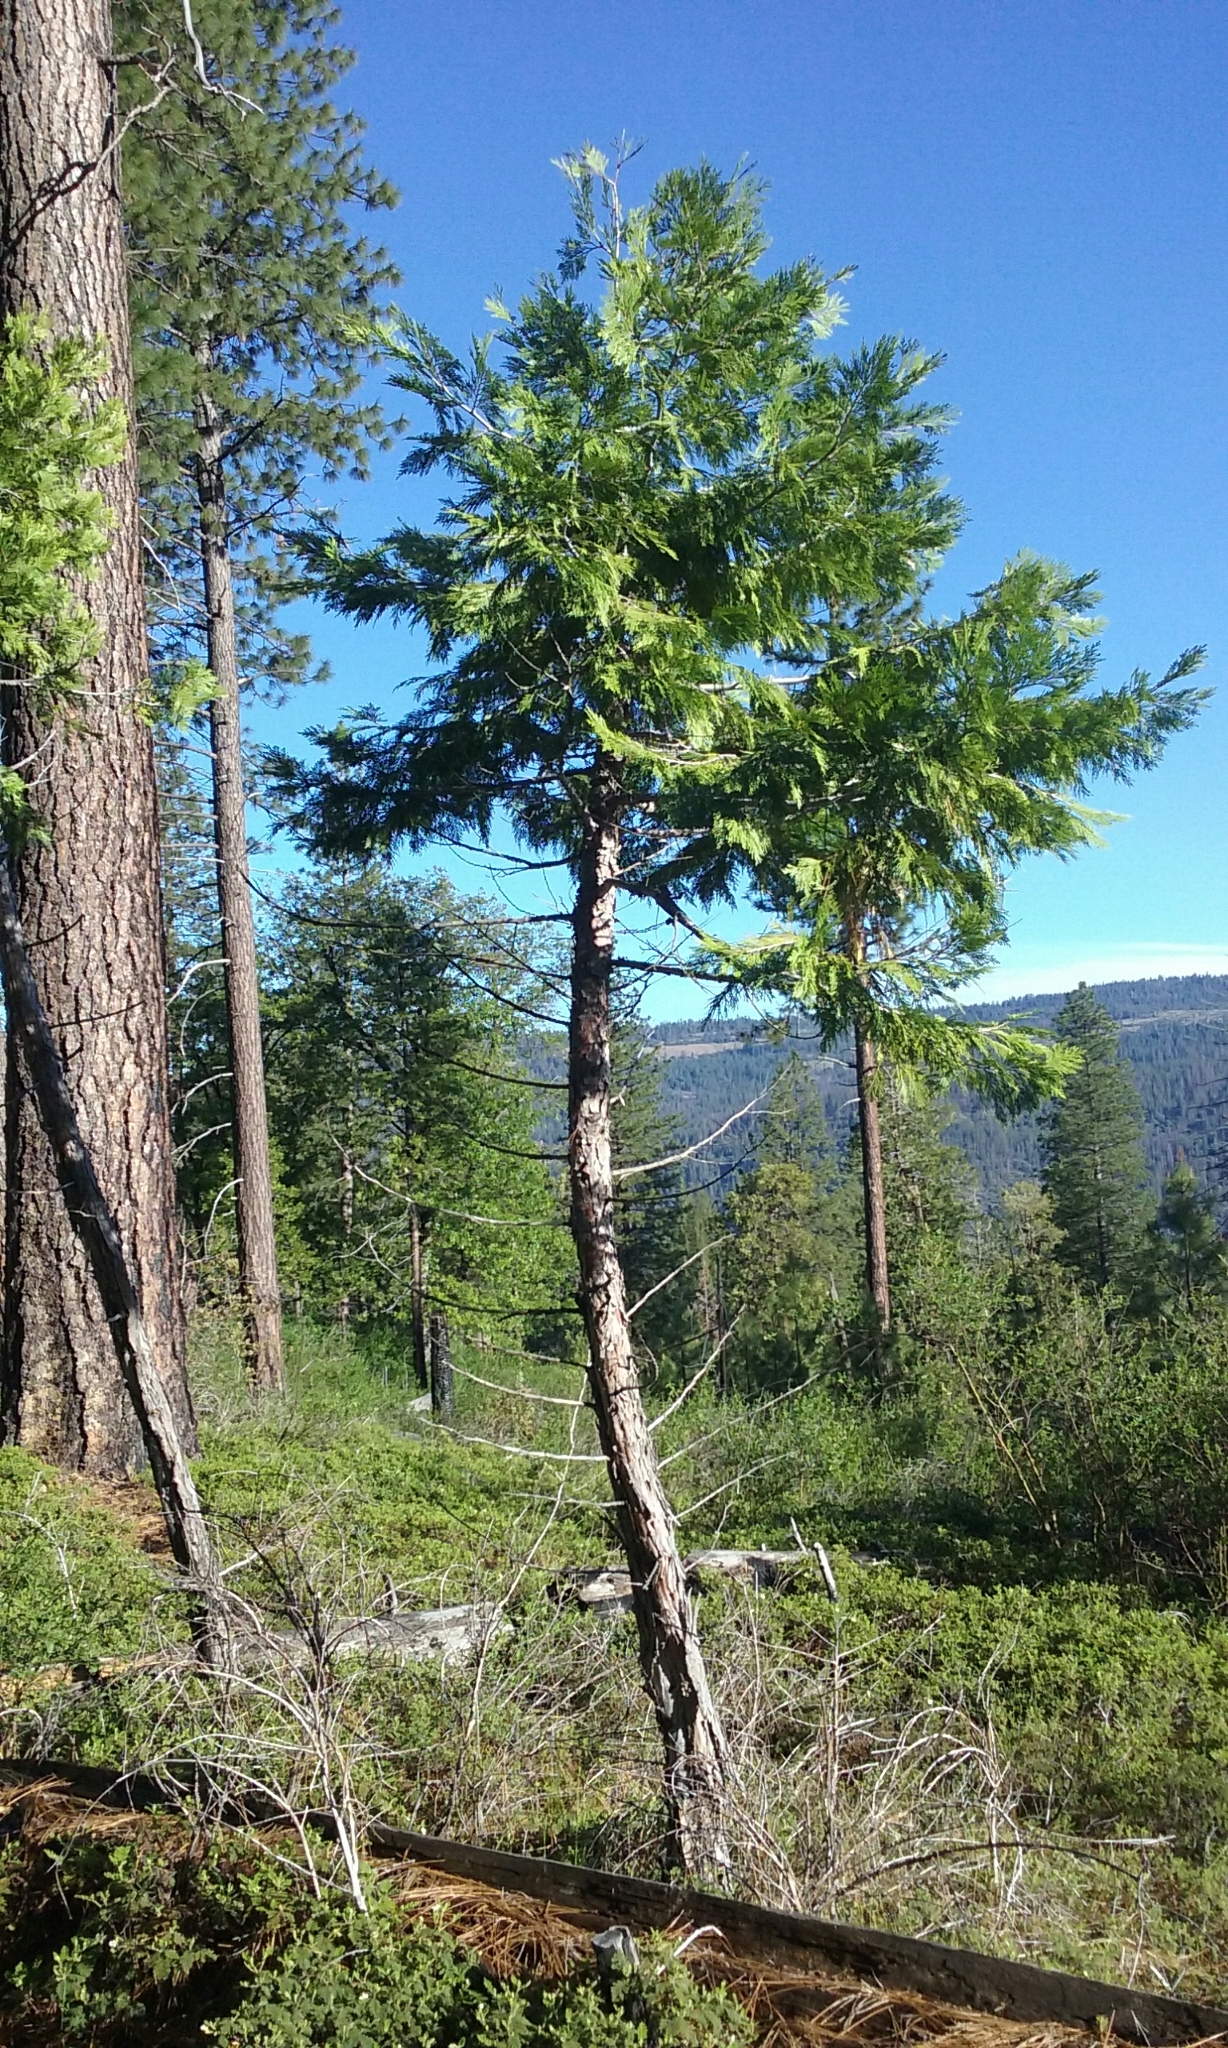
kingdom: Plantae
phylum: Tracheophyta
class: Pinopsida
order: Pinales
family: Cupressaceae
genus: Calocedrus
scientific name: Calocedrus decurrens
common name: Californian incense-cedar
